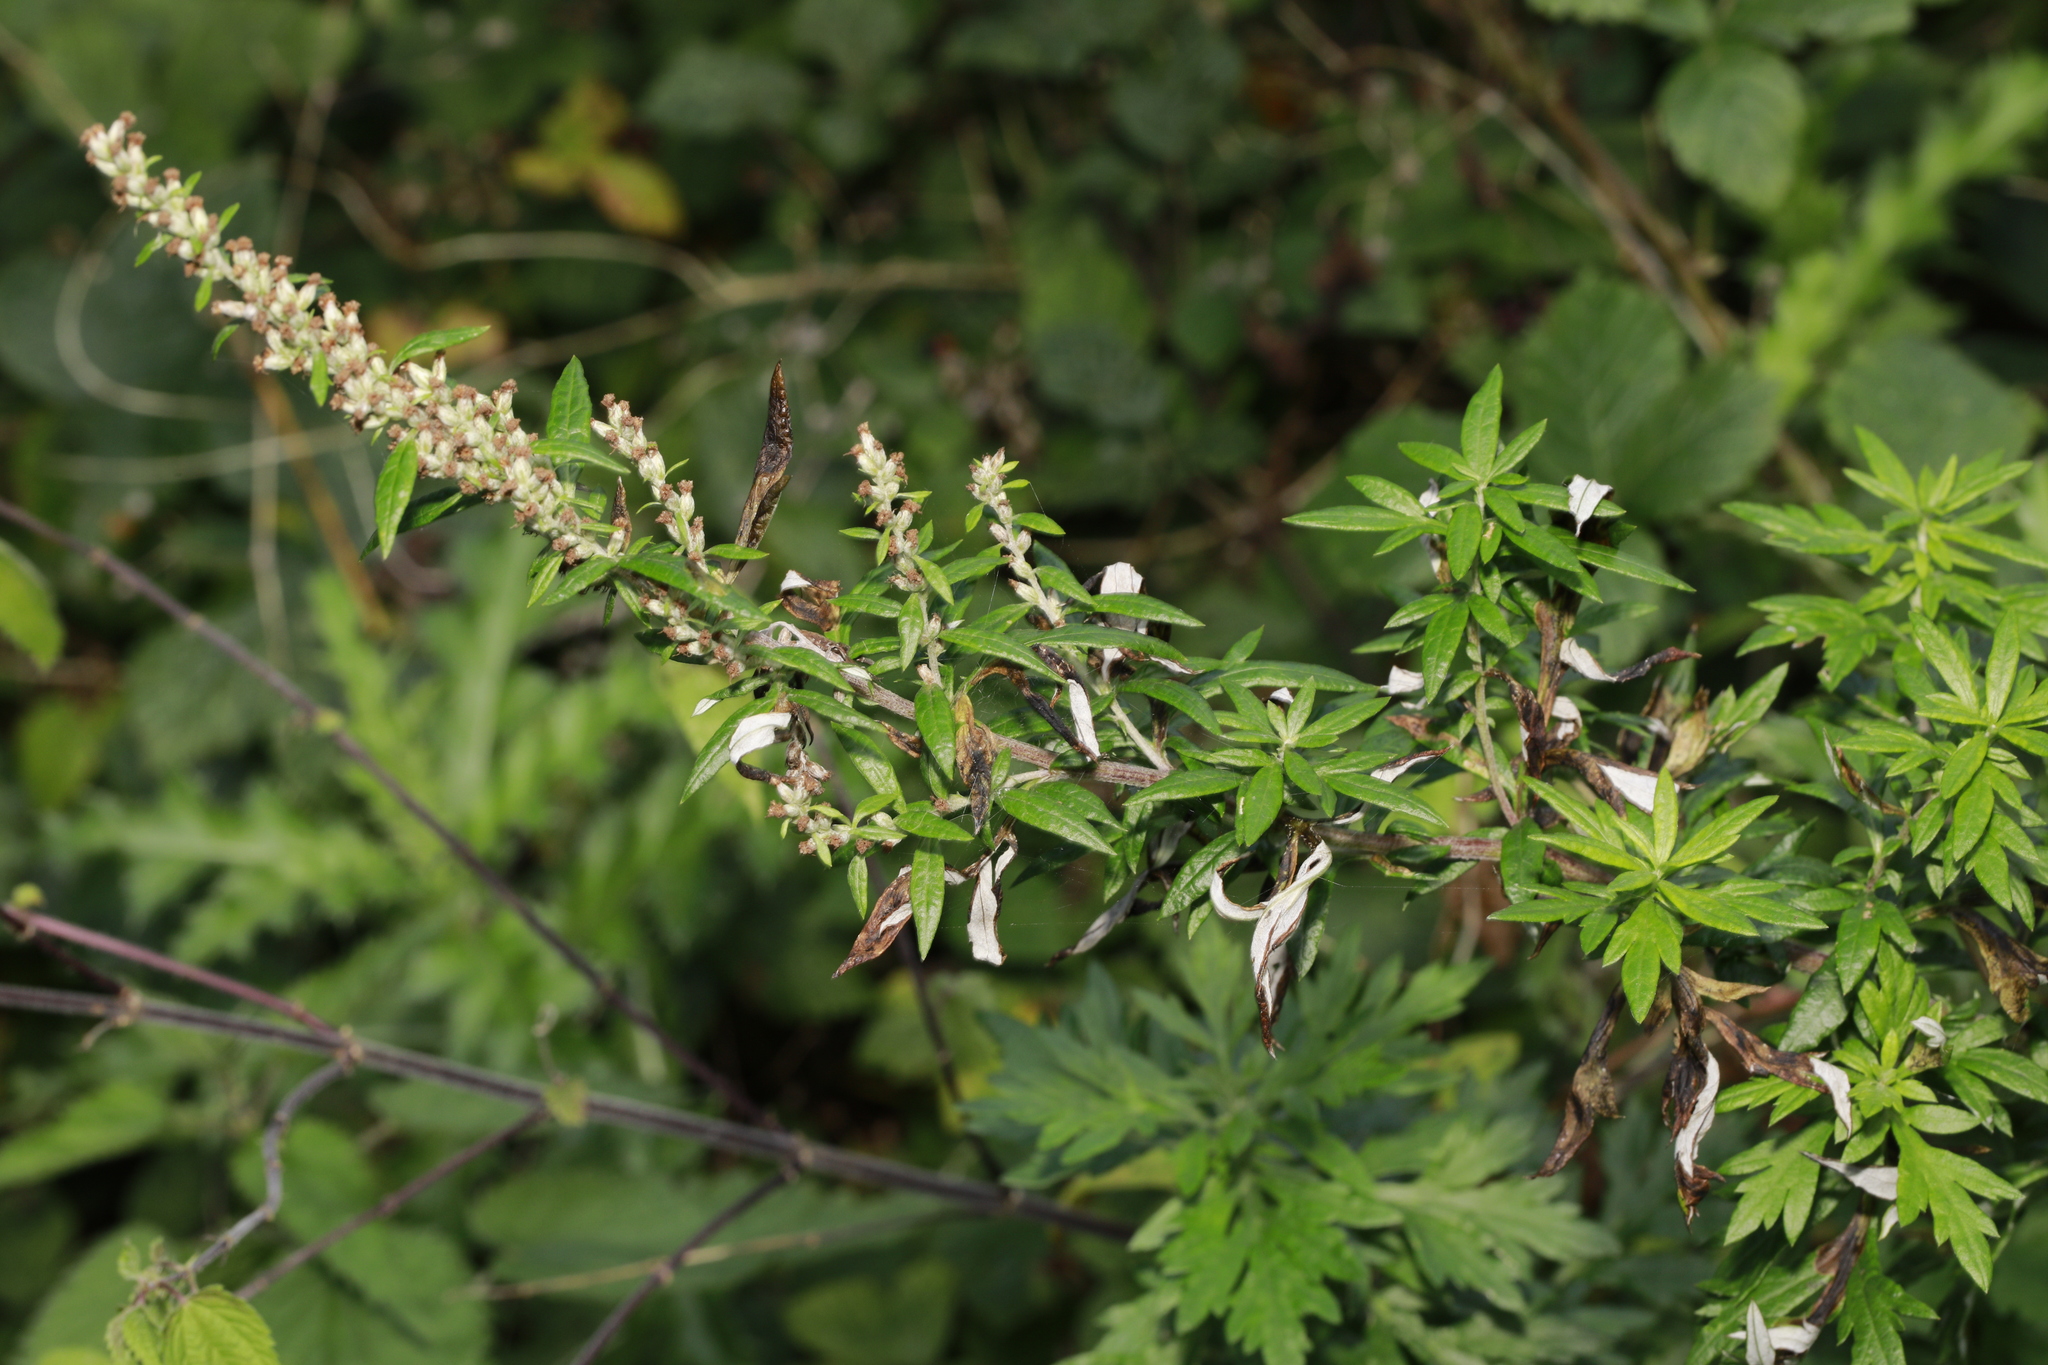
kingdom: Plantae
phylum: Tracheophyta
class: Magnoliopsida
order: Asterales
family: Asteraceae
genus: Artemisia
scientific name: Artemisia vulgaris
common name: Mugwort
